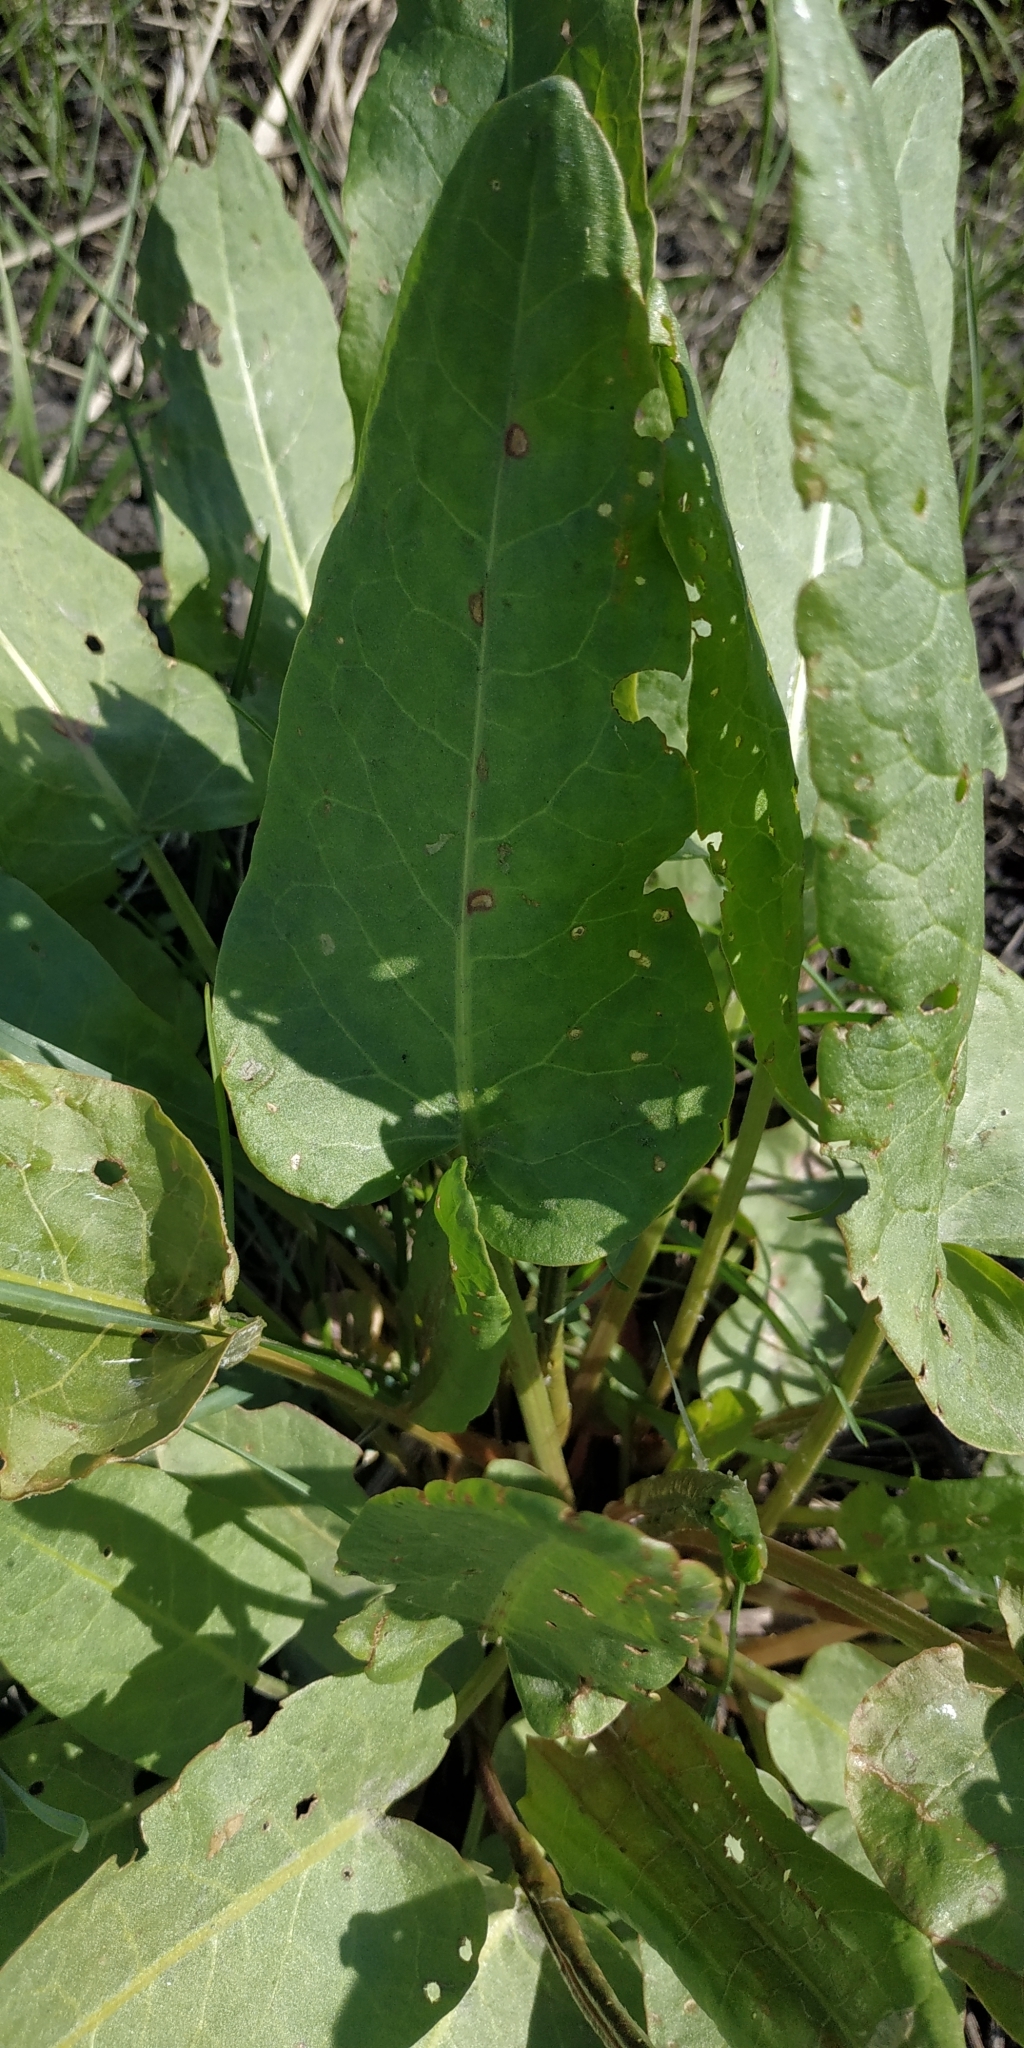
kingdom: Plantae
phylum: Tracheophyta
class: Magnoliopsida
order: Caryophyllales
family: Polygonaceae
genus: Rumex
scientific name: Rumex confertus
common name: Russian dock
